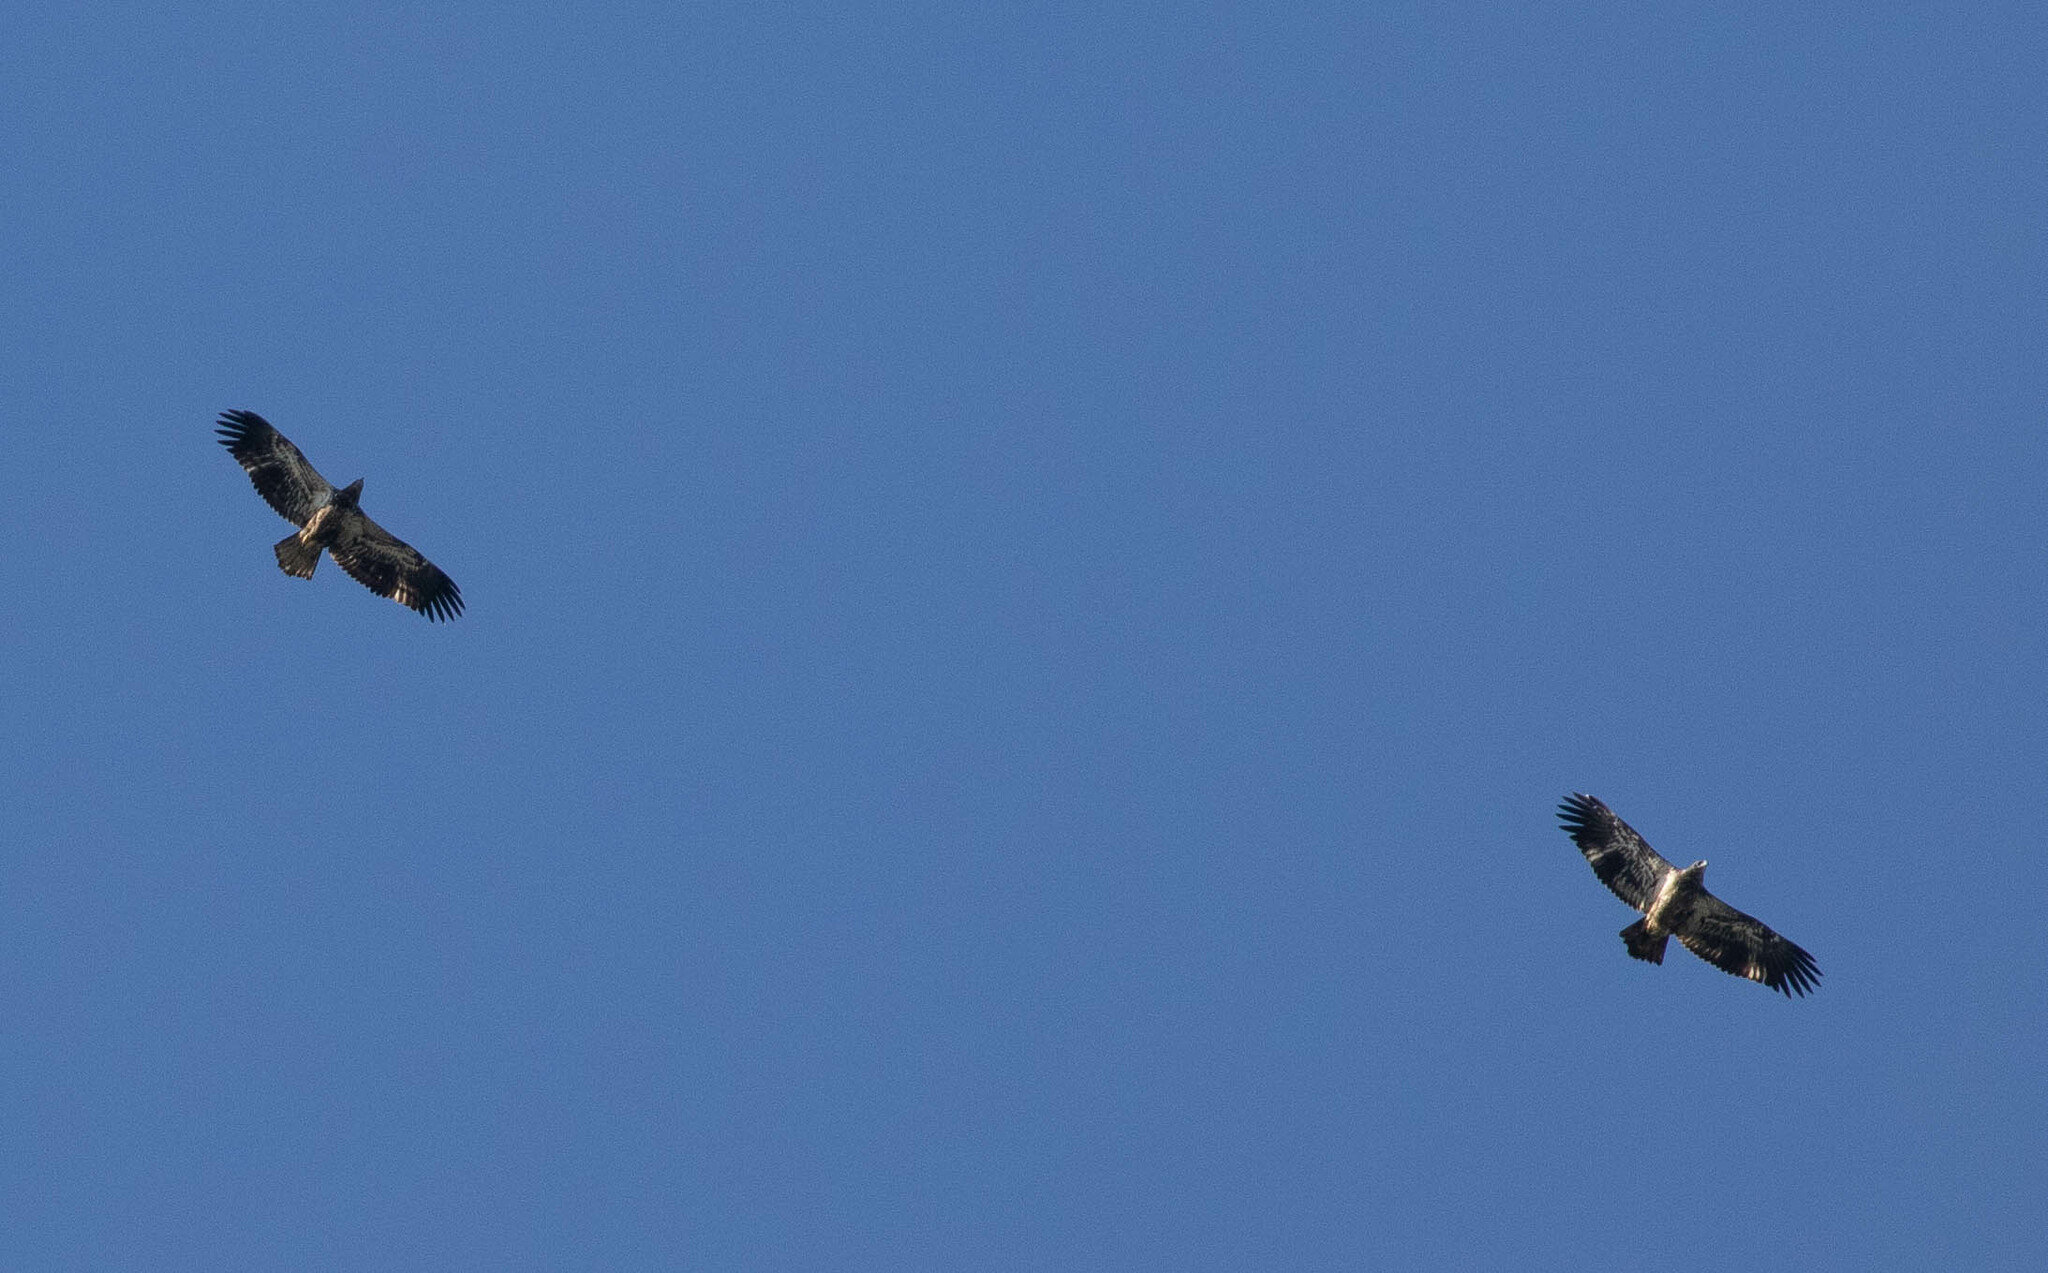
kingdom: Animalia
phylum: Chordata
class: Aves
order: Accipitriformes
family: Accipitridae
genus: Haliaeetus
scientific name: Haliaeetus leucocephalus
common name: Bald eagle
